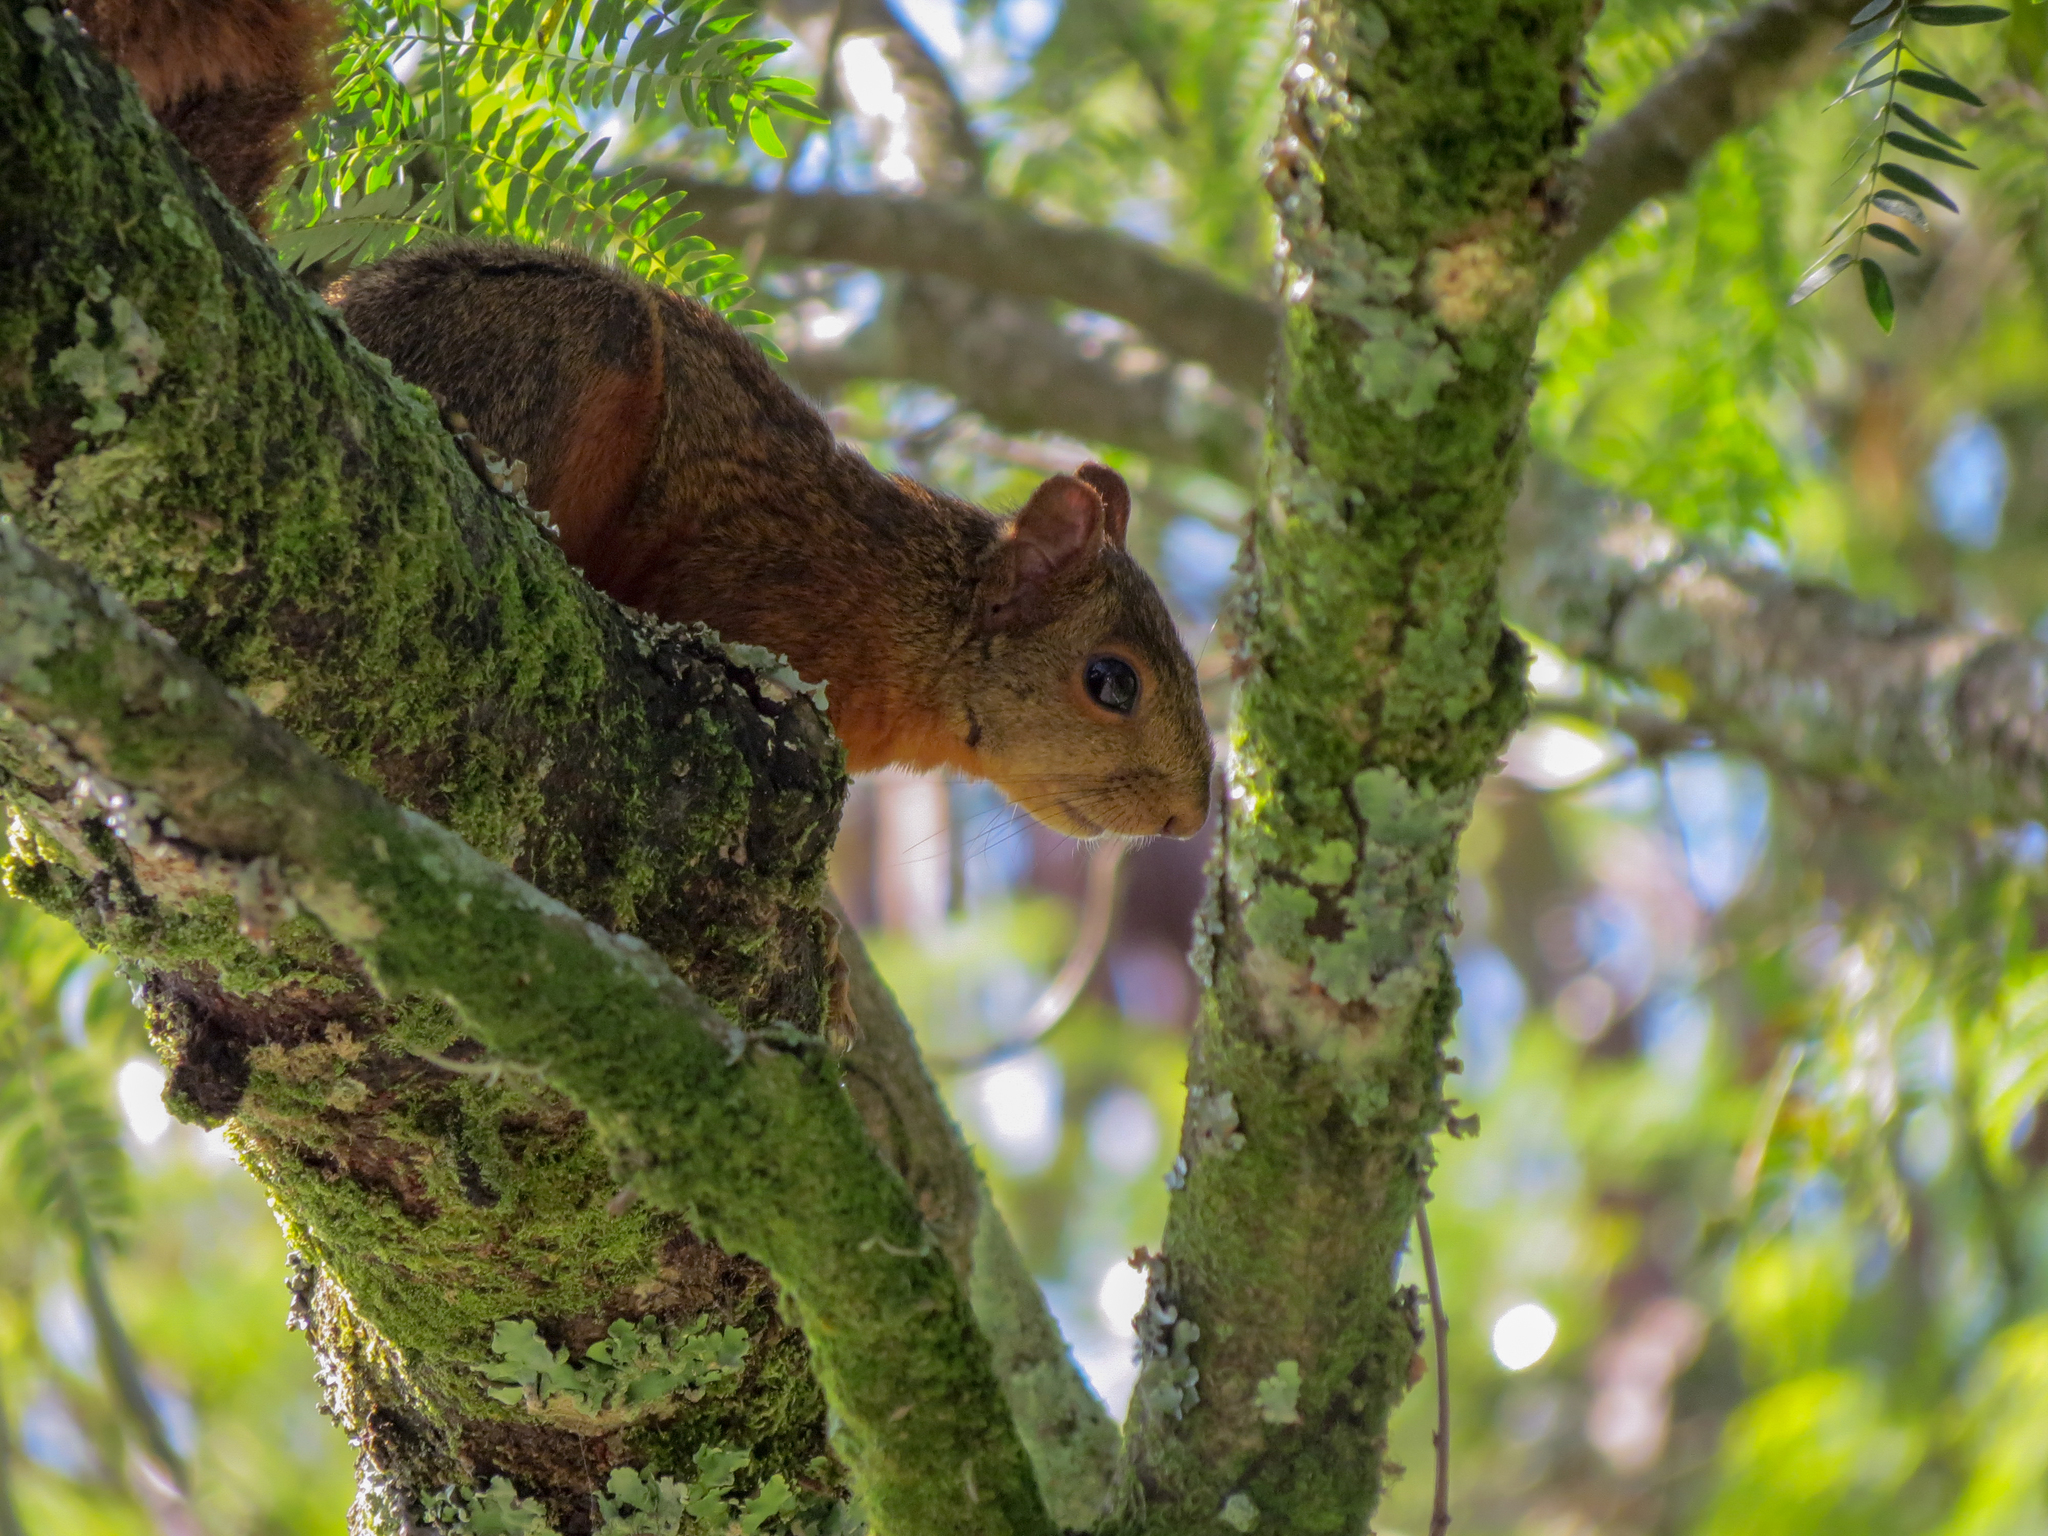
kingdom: Animalia
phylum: Chordata
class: Mammalia
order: Rodentia
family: Sciuridae
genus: Sciurus
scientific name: Sciurus granatensis
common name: Red-tailed squirrel
